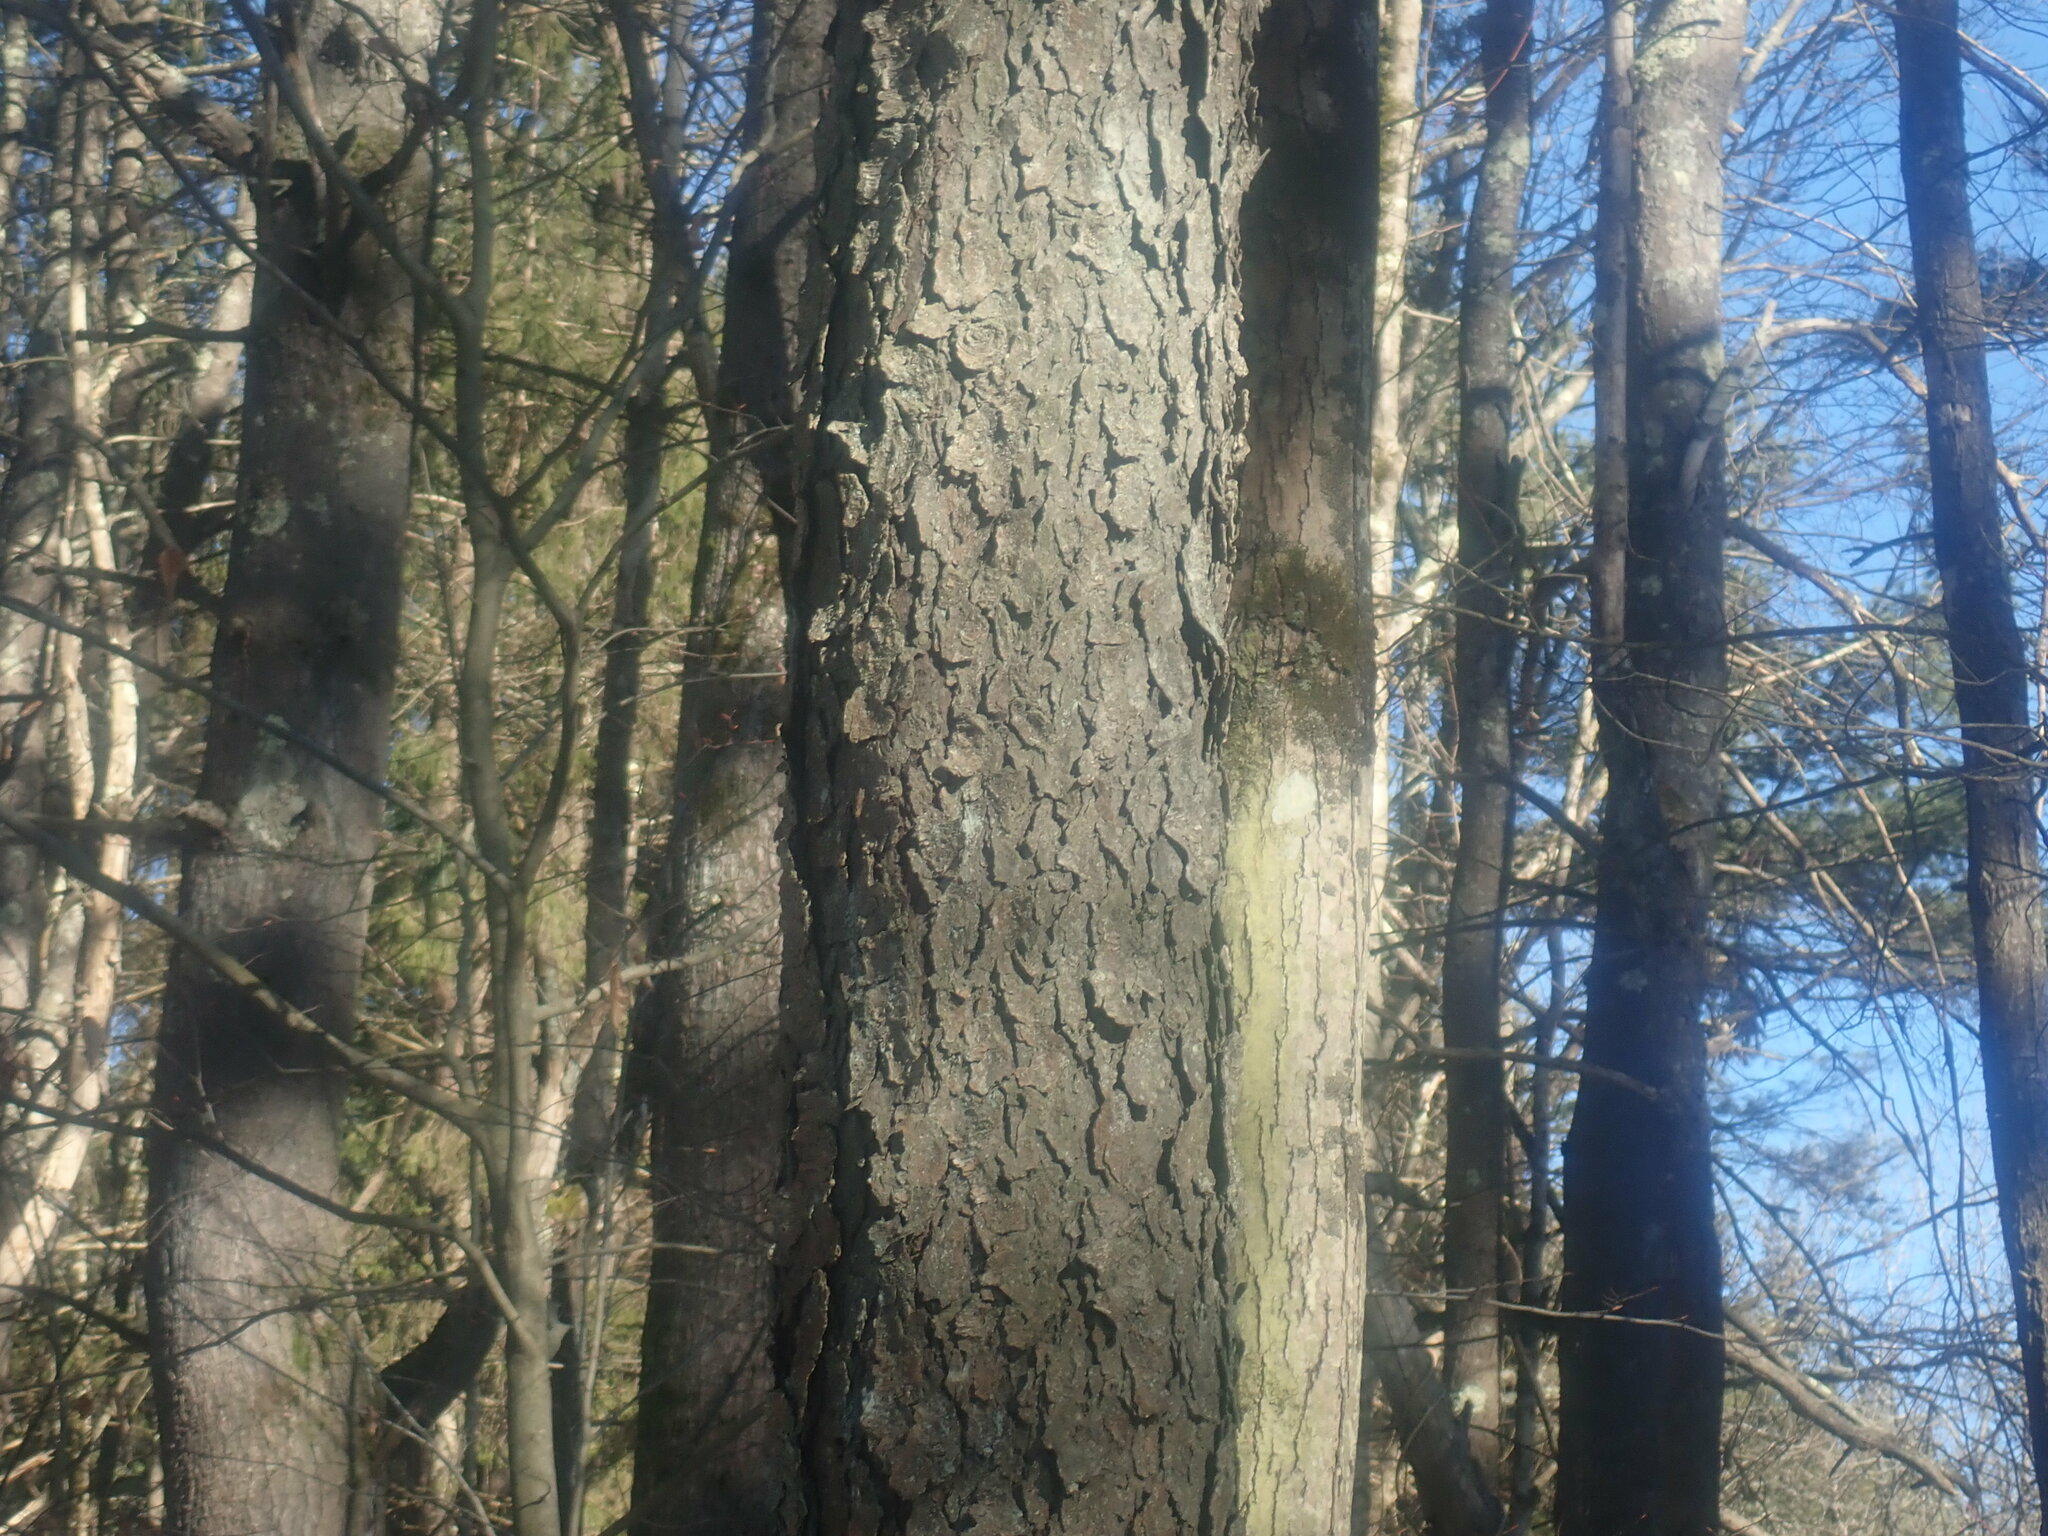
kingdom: Plantae
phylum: Tracheophyta
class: Magnoliopsida
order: Rosales
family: Rosaceae
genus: Prunus
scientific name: Prunus serotina
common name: Black cherry
